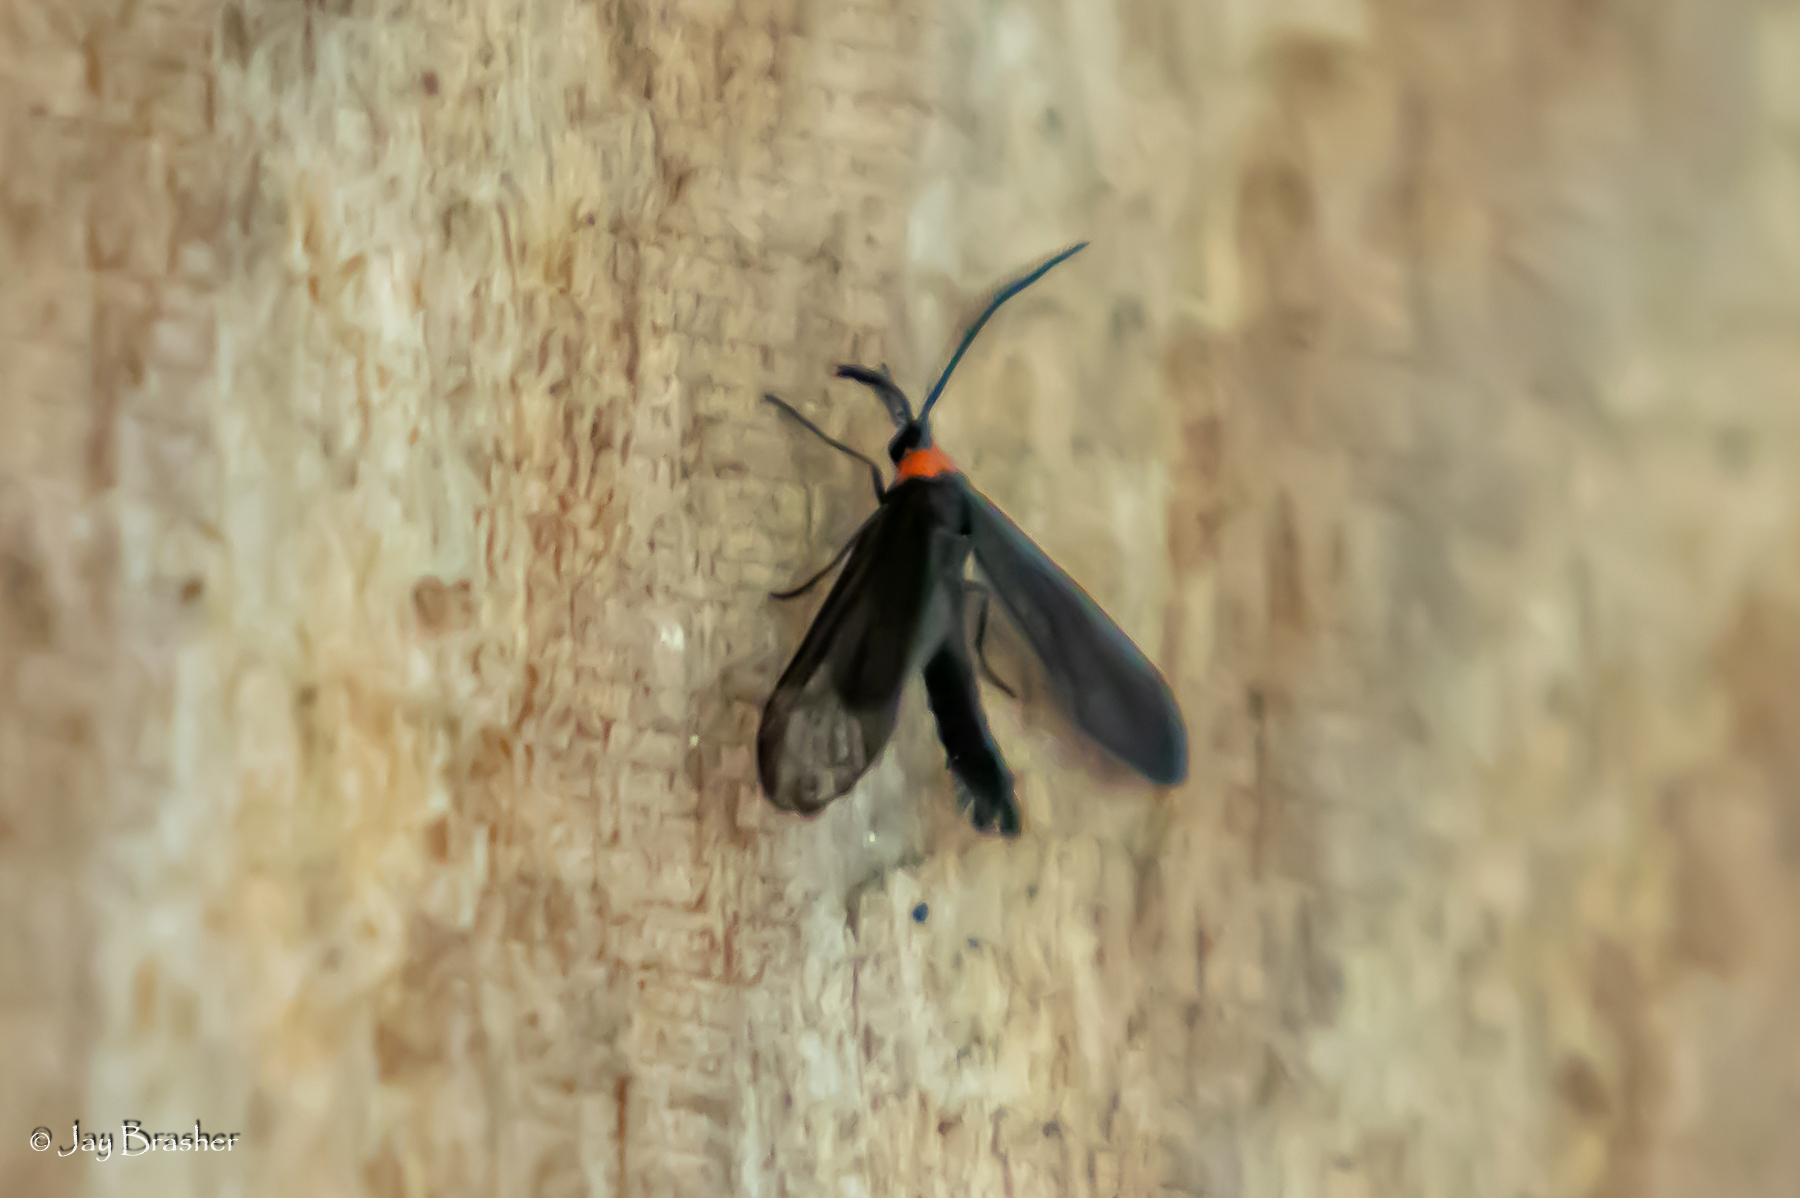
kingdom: Animalia
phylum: Arthropoda
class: Insecta
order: Lepidoptera
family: Zygaenidae
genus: Harrisina
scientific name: Harrisina americana
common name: Grapeleaf skeletonizer moth
